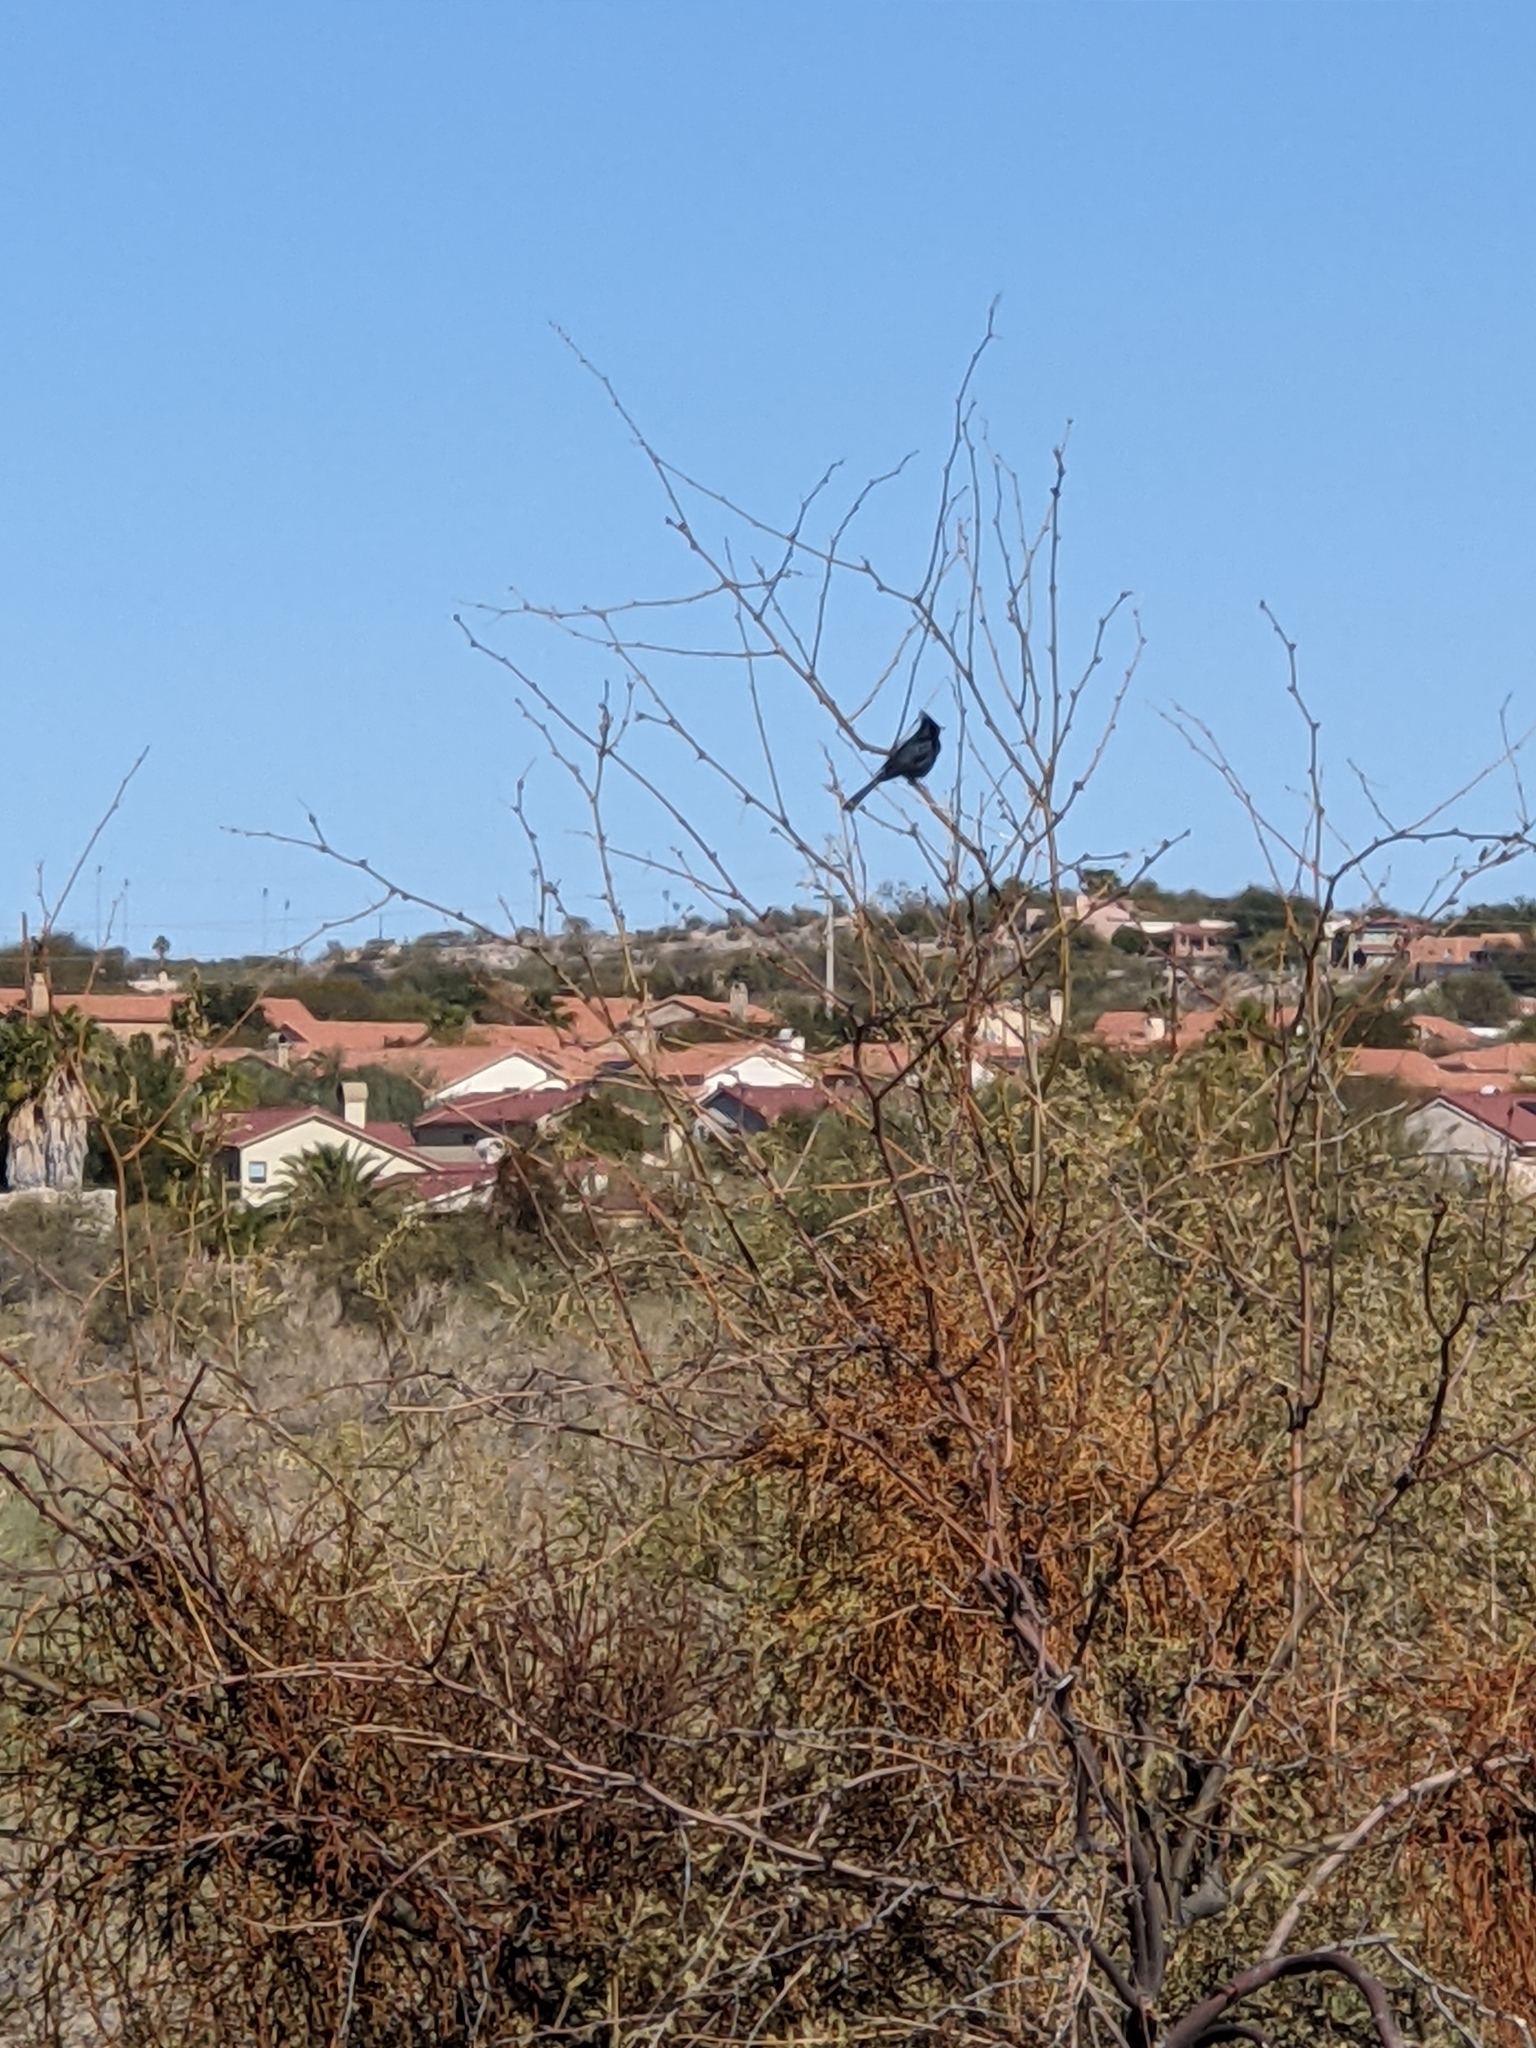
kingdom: Animalia
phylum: Chordata
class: Aves
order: Passeriformes
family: Ptilogonatidae
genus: Phainopepla
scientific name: Phainopepla nitens
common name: Phainopepla
